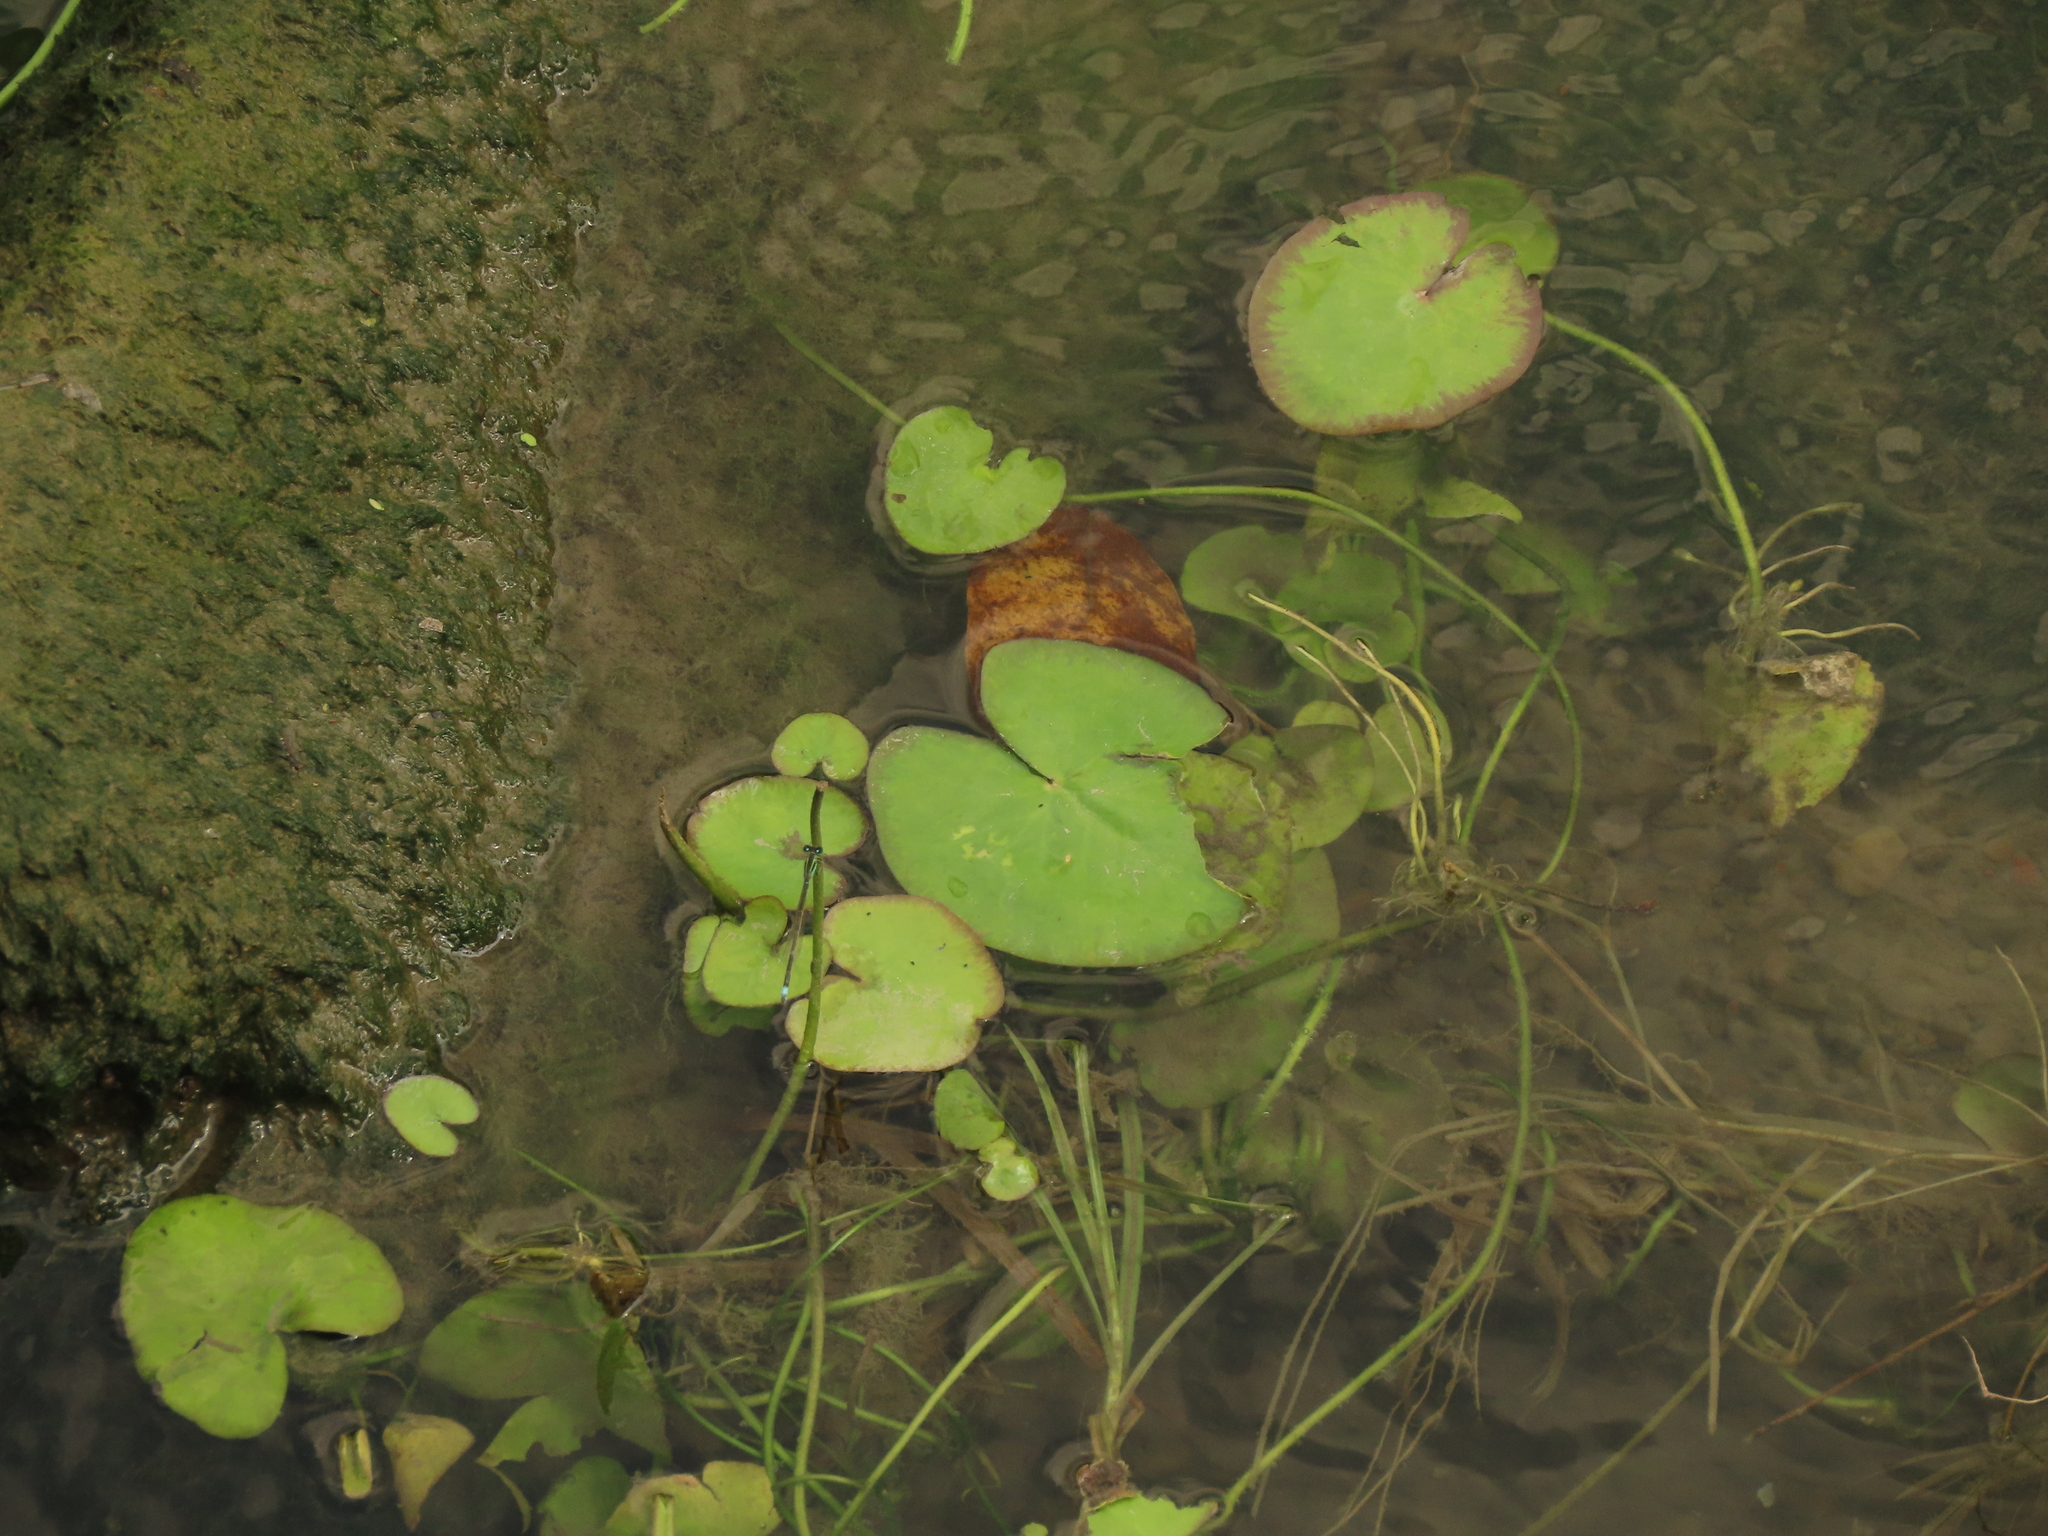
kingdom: Plantae
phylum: Tracheophyta
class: Magnoliopsida
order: Asterales
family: Menyanthaceae
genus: Nymphoides
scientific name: Nymphoides hydrophylla
